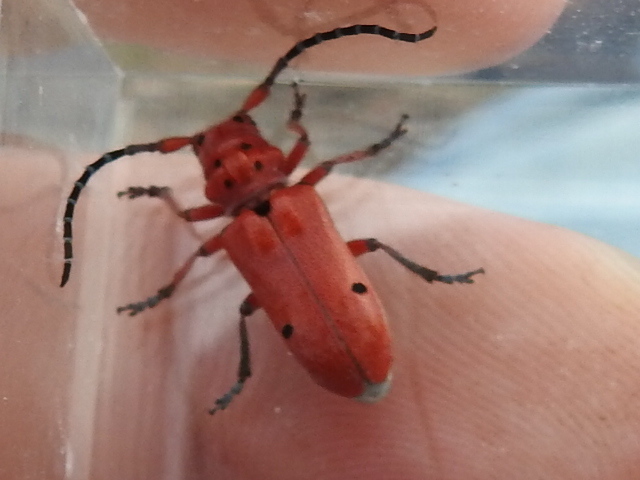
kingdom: Animalia
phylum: Arthropoda
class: Insecta
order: Coleoptera
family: Cerambycidae
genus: Tetraopes
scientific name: Tetraopes femoratus
